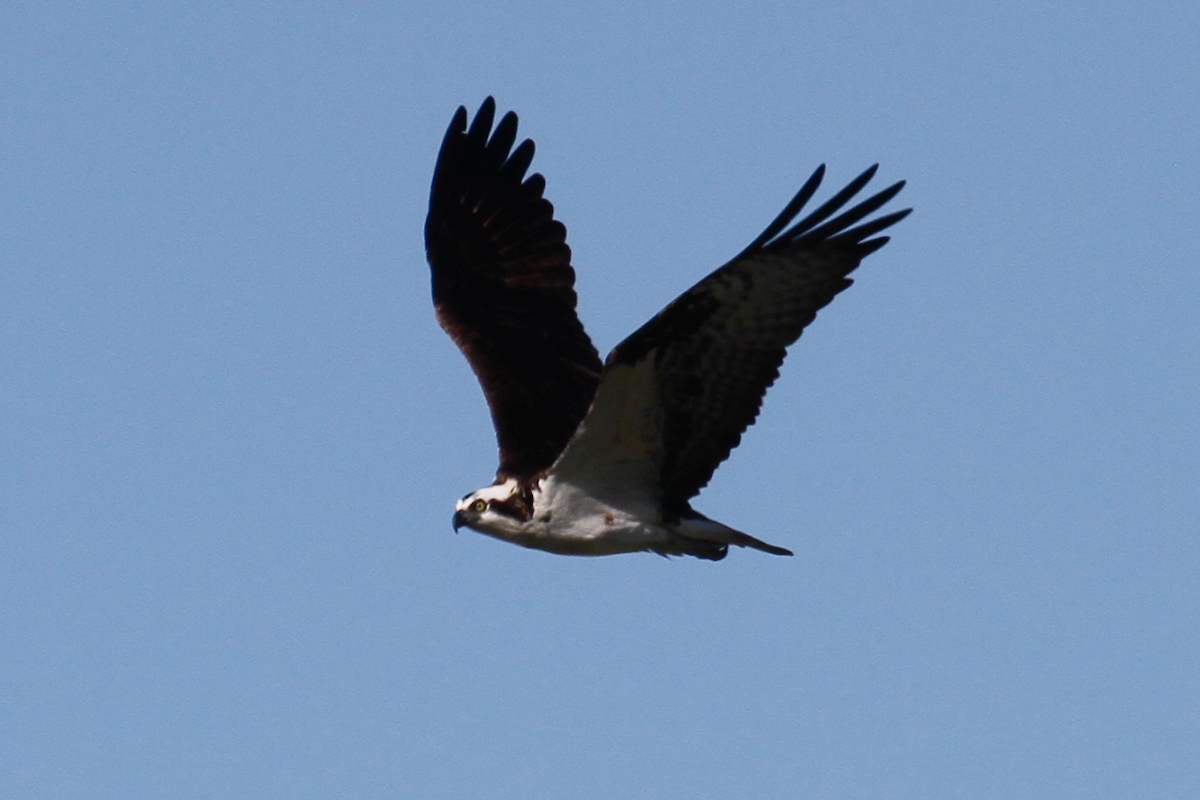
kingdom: Animalia
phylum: Chordata
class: Aves
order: Accipitriformes
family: Pandionidae
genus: Pandion
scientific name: Pandion haliaetus
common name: Osprey
